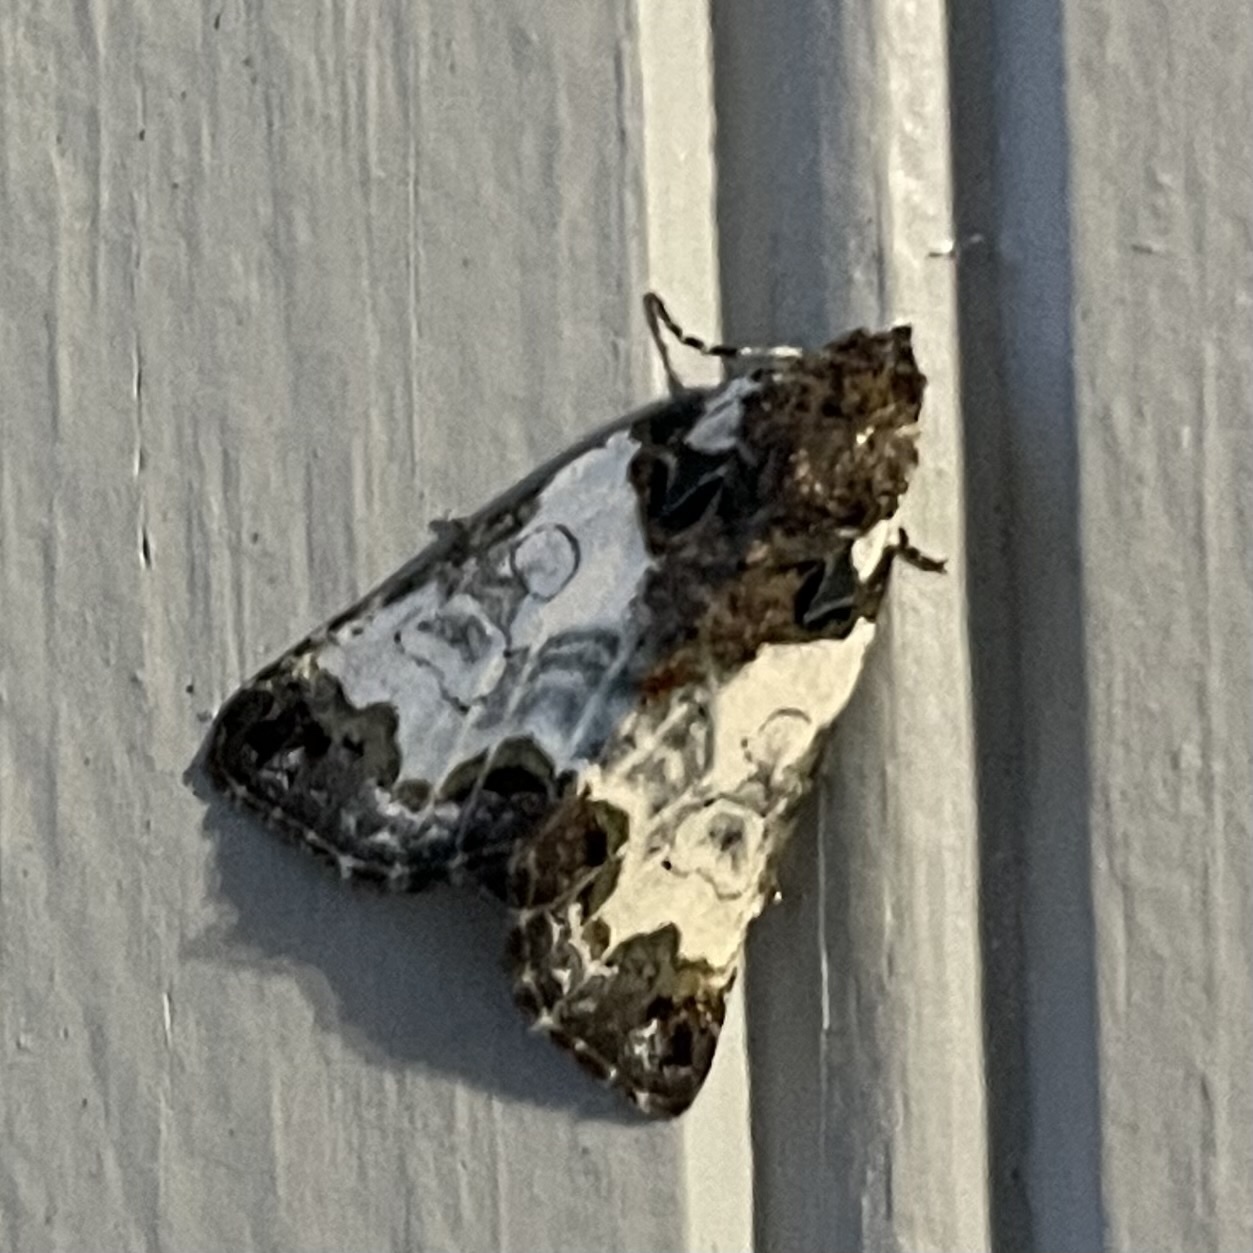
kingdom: Animalia
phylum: Arthropoda
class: Insecta
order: Lepidoptera
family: Noctuidae
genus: Cerma
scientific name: Cerma cerintha
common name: Tufted bird-dropping moth
